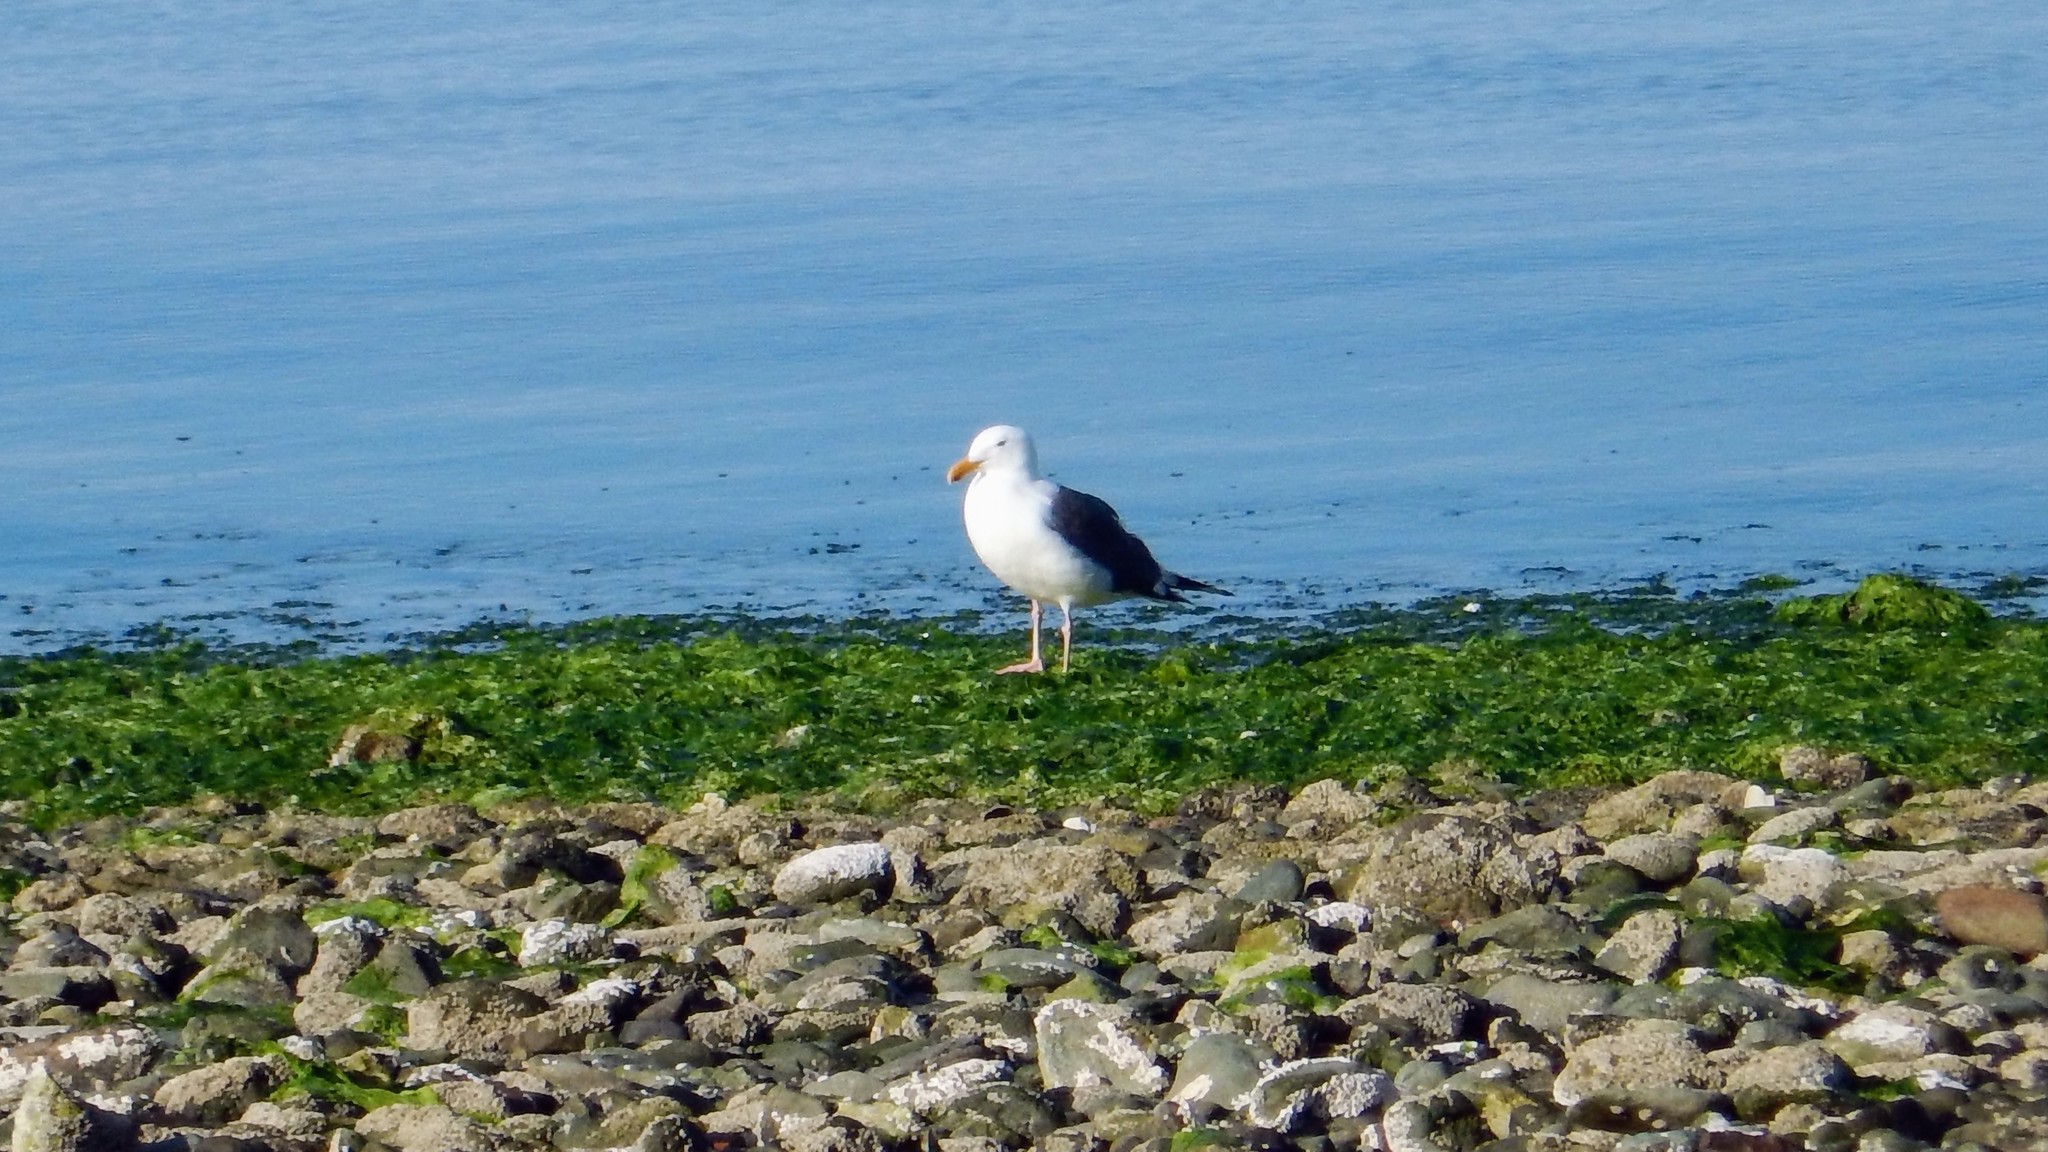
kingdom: Animalia
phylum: Chordata
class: Aves
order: Charadriiformes
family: Laridae
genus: Larus
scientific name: Larus occidentalis
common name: Western gull
